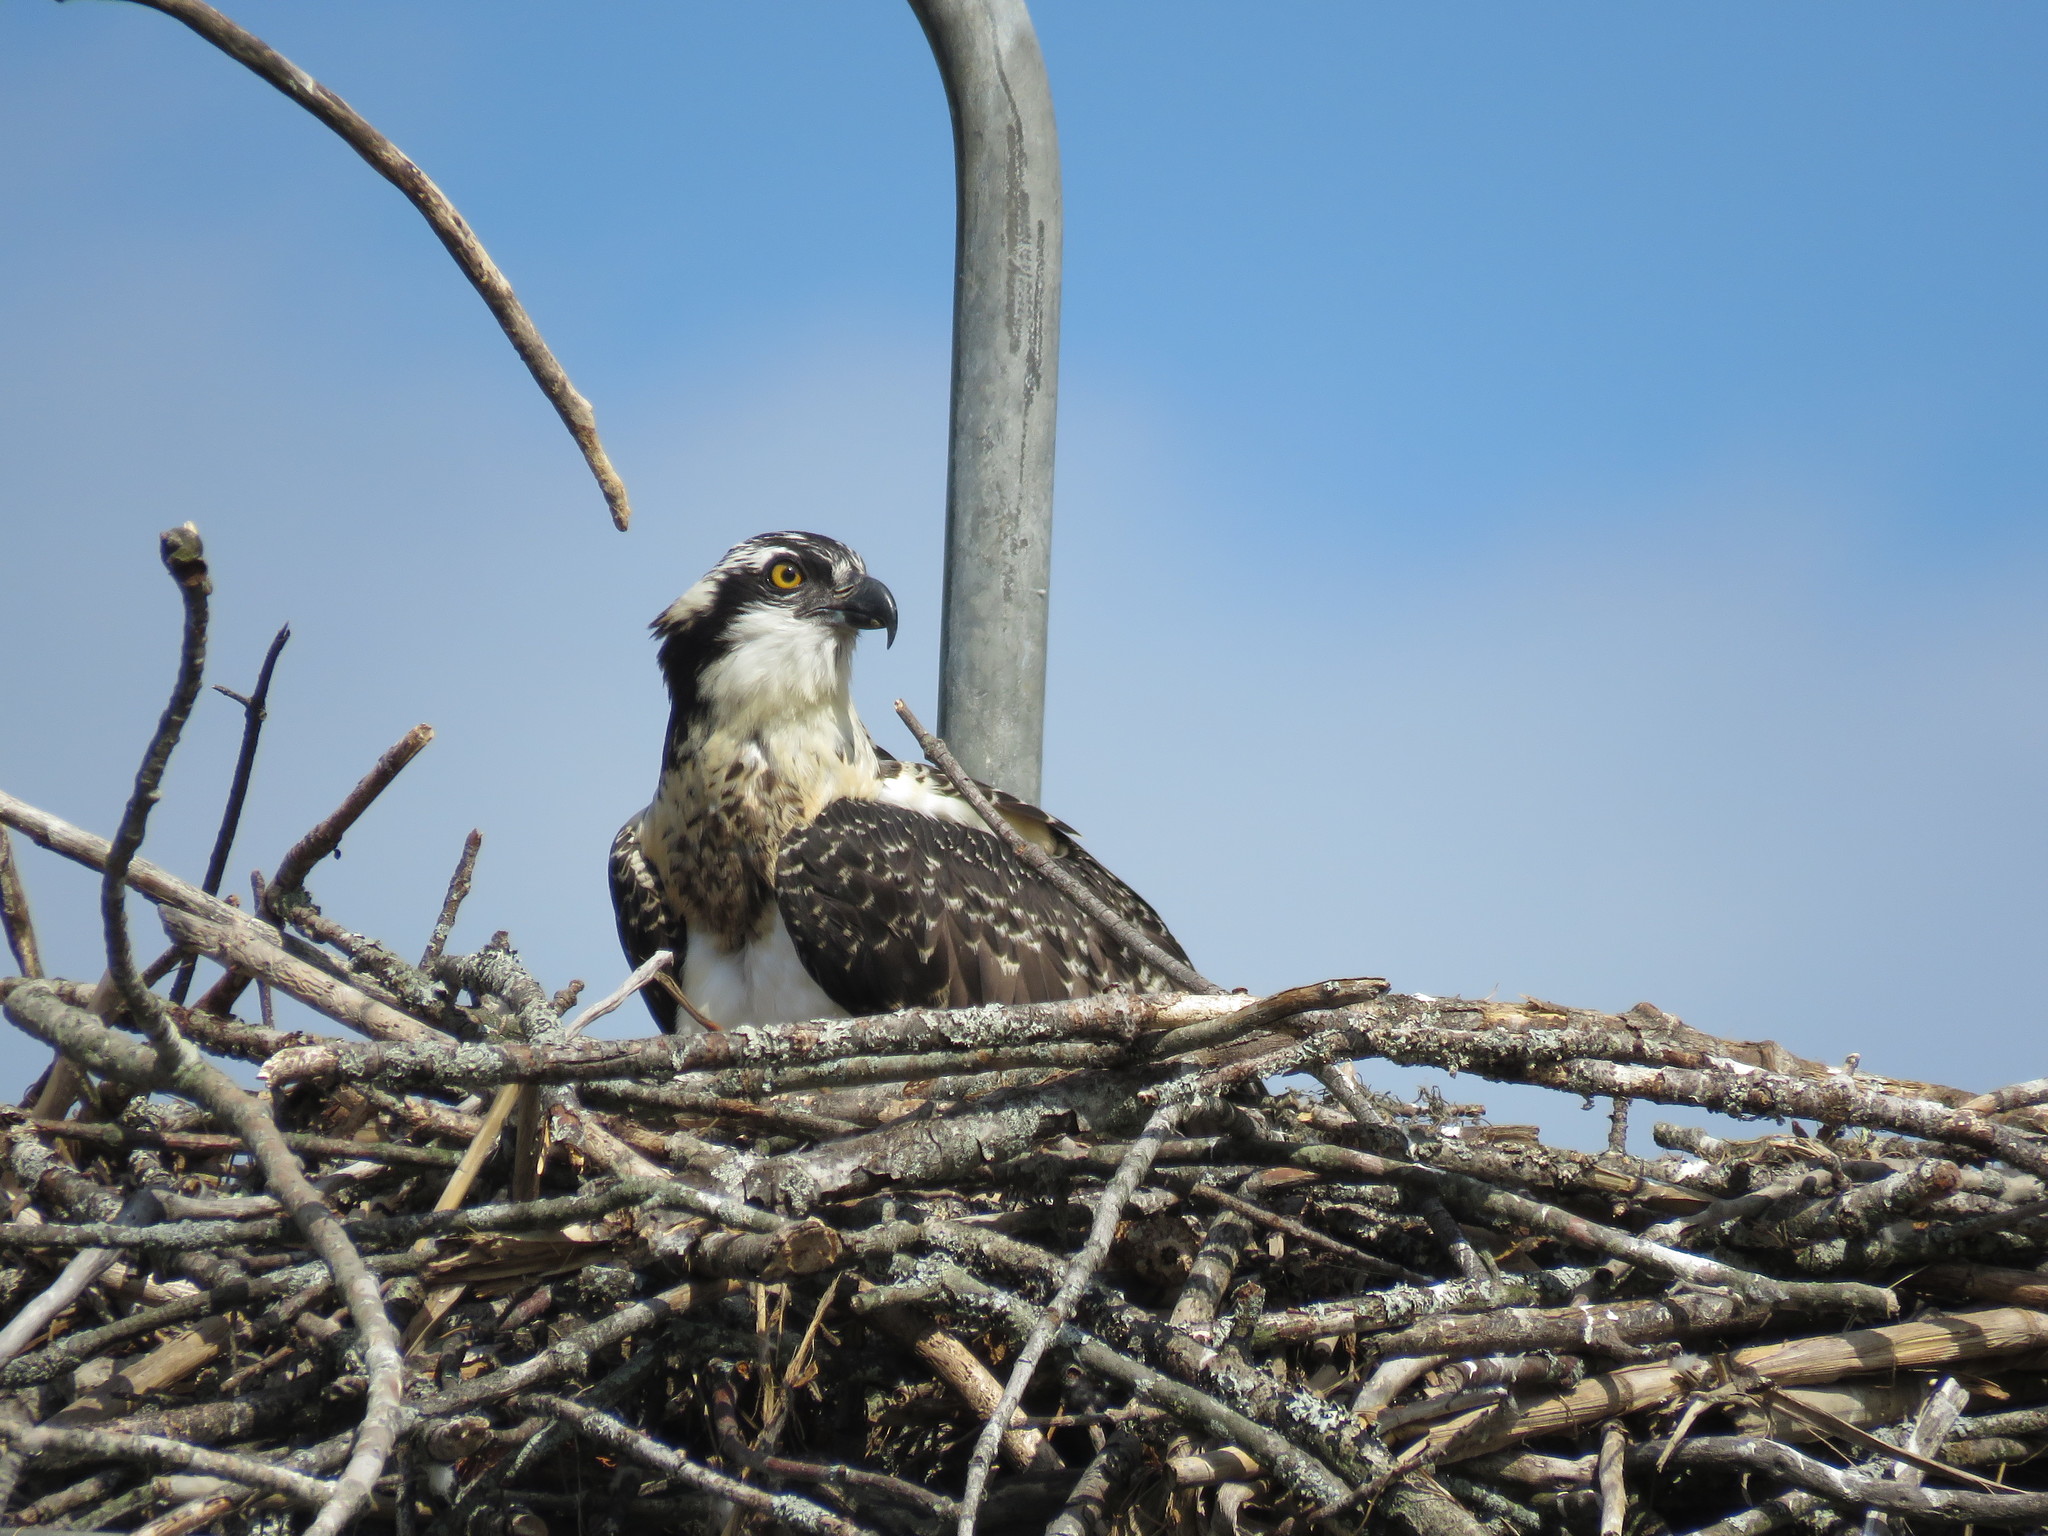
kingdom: Animalia
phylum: Chordata
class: Aves
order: Accipitriformes
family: Pandionidae
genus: Pandion
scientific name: Pandion haliaetus
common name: Osprey
